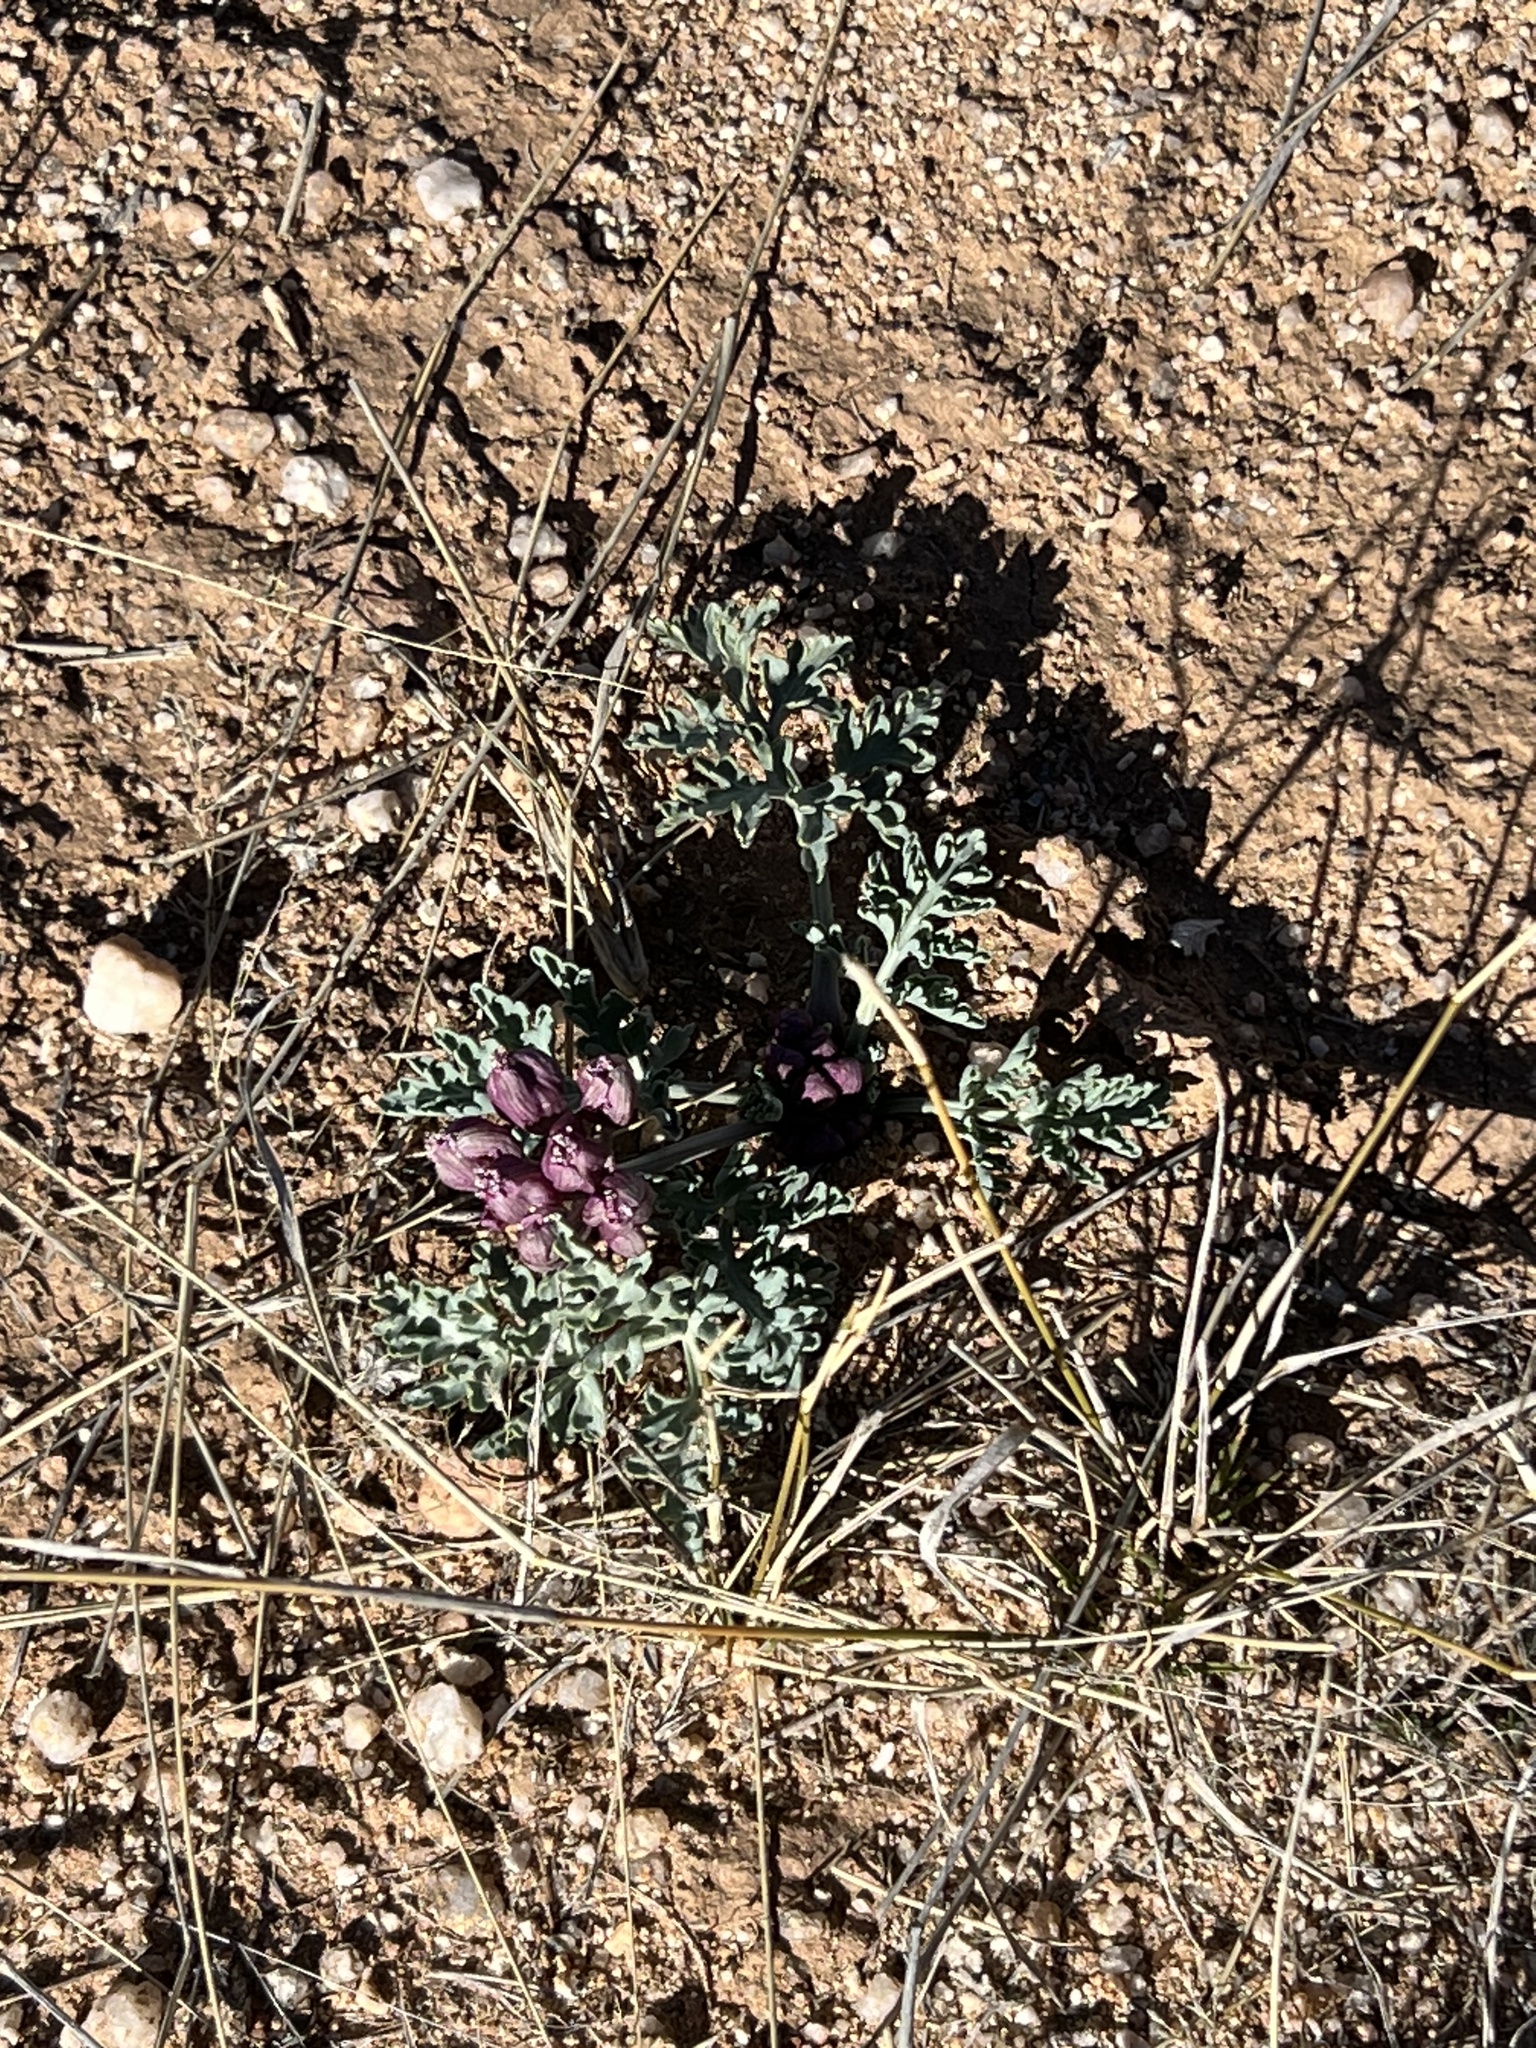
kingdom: Plantae
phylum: Tracheophyta
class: Magnoliopsida
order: Apiales
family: Apiaceae
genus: Vesper
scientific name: Vesper multinervatus
